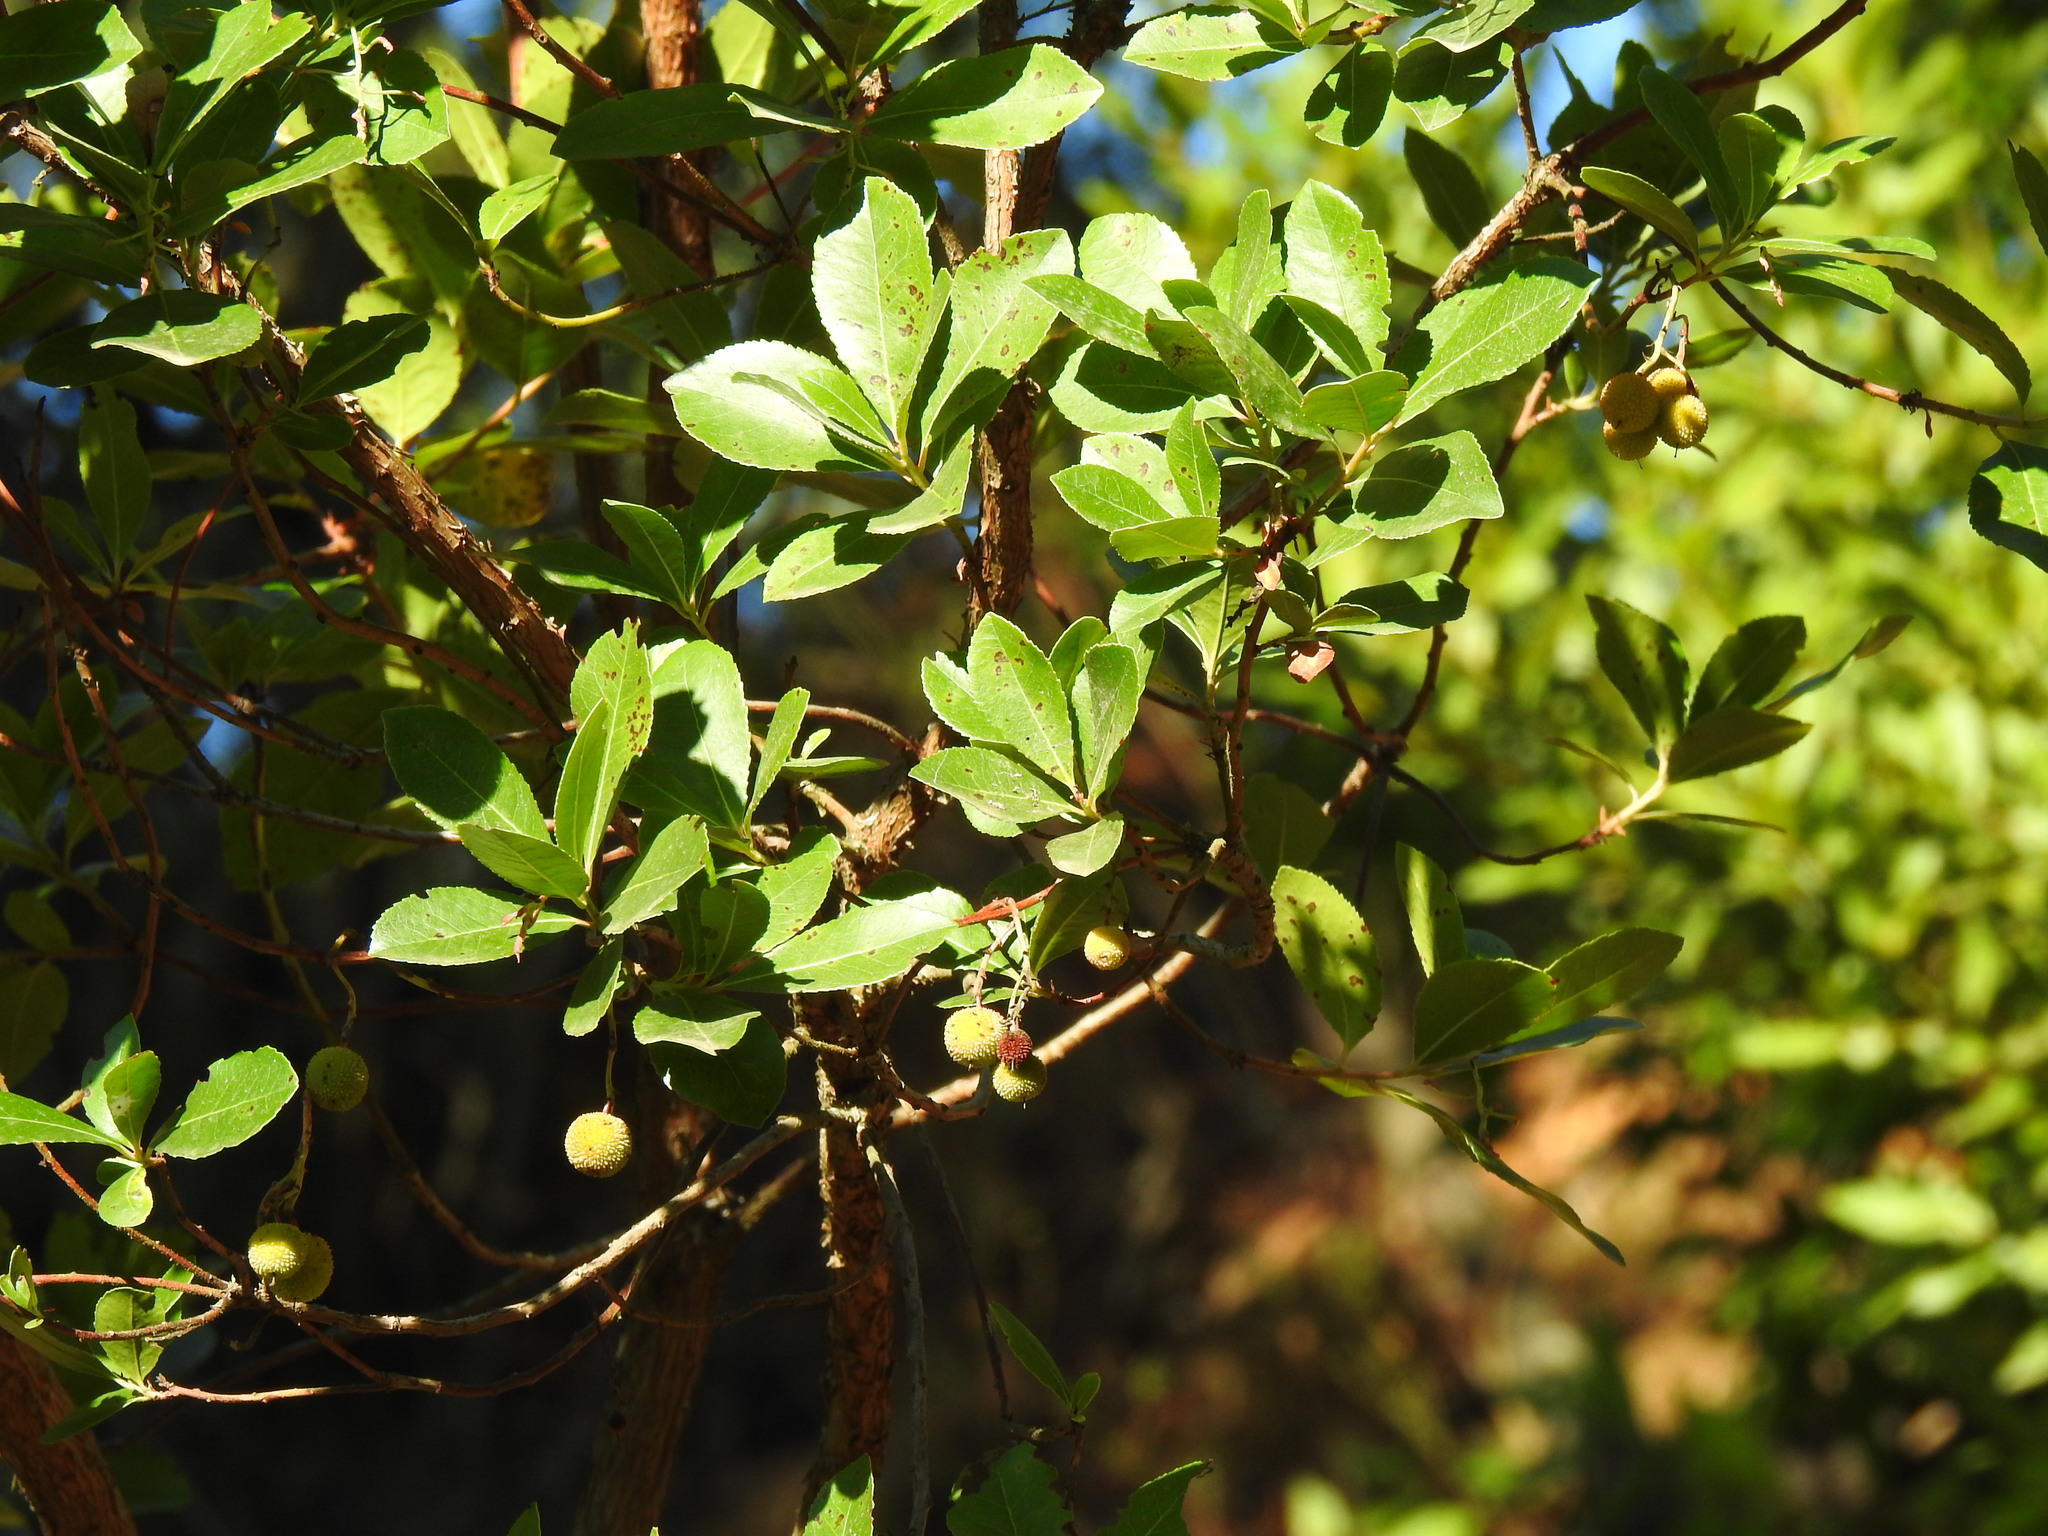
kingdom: Plantae
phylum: Tracheophyta
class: Magnoliopsida
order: Ericales
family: Ericaceae
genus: Arbutus
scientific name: Arbutus unedo
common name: Strawberry-tree
